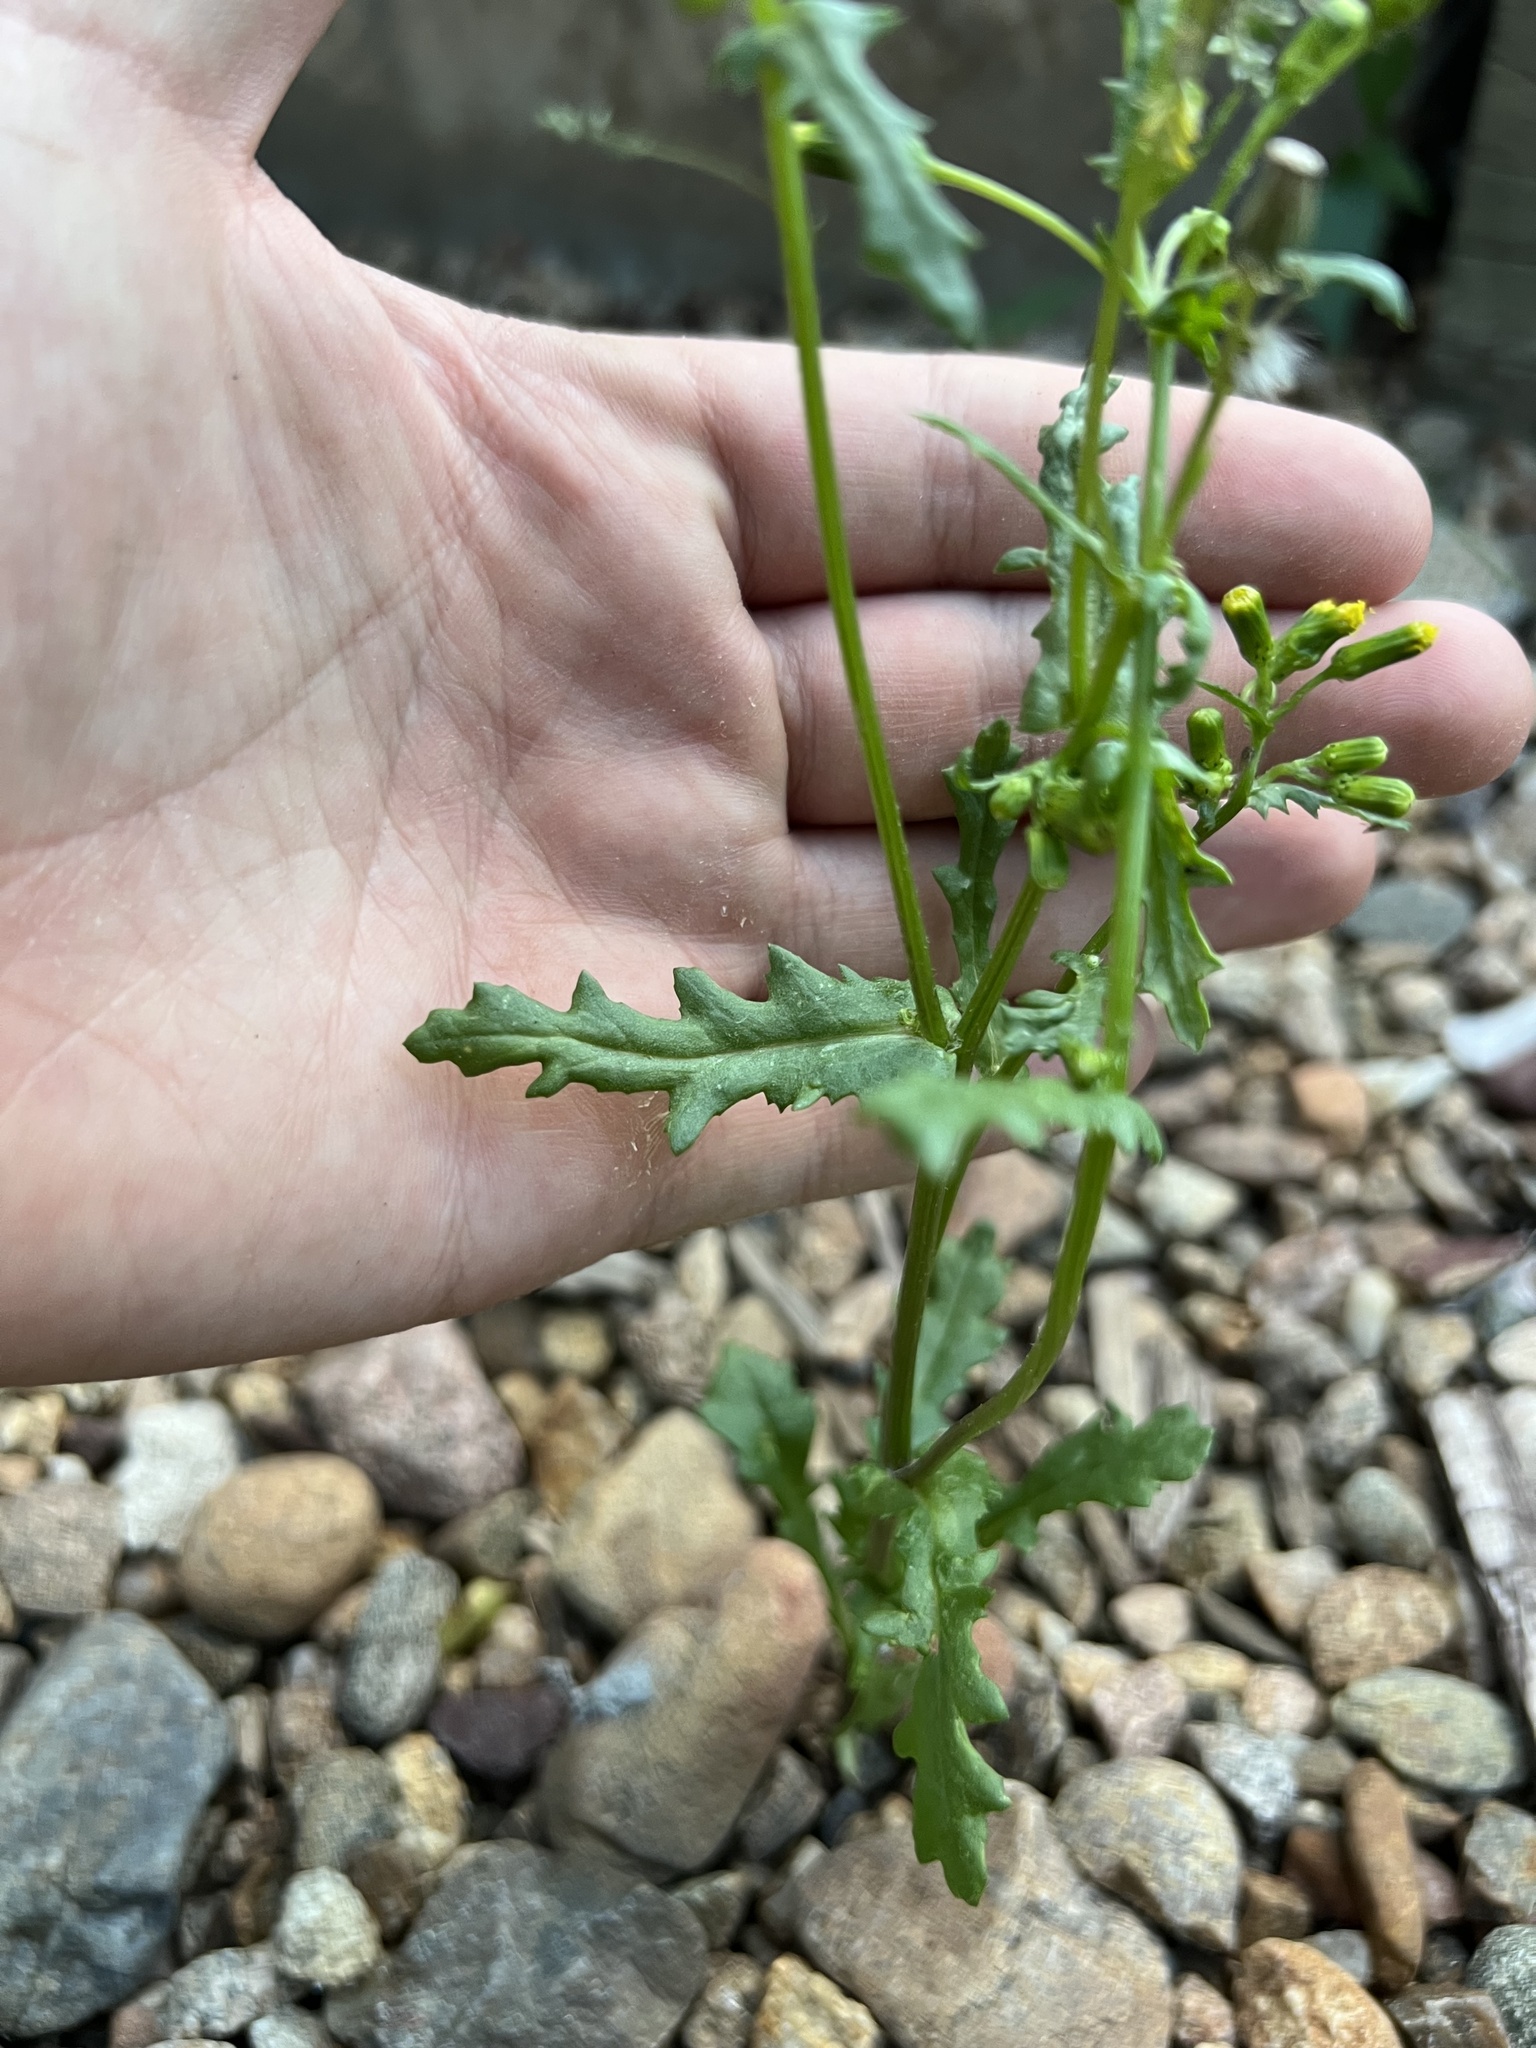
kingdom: Plantae
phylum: Tracheophyta
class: Magnoliopsida
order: Asterales
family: Asteraceae
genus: Senecio
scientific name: Senecio vulgaris
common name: Old-man-in-the-spring
